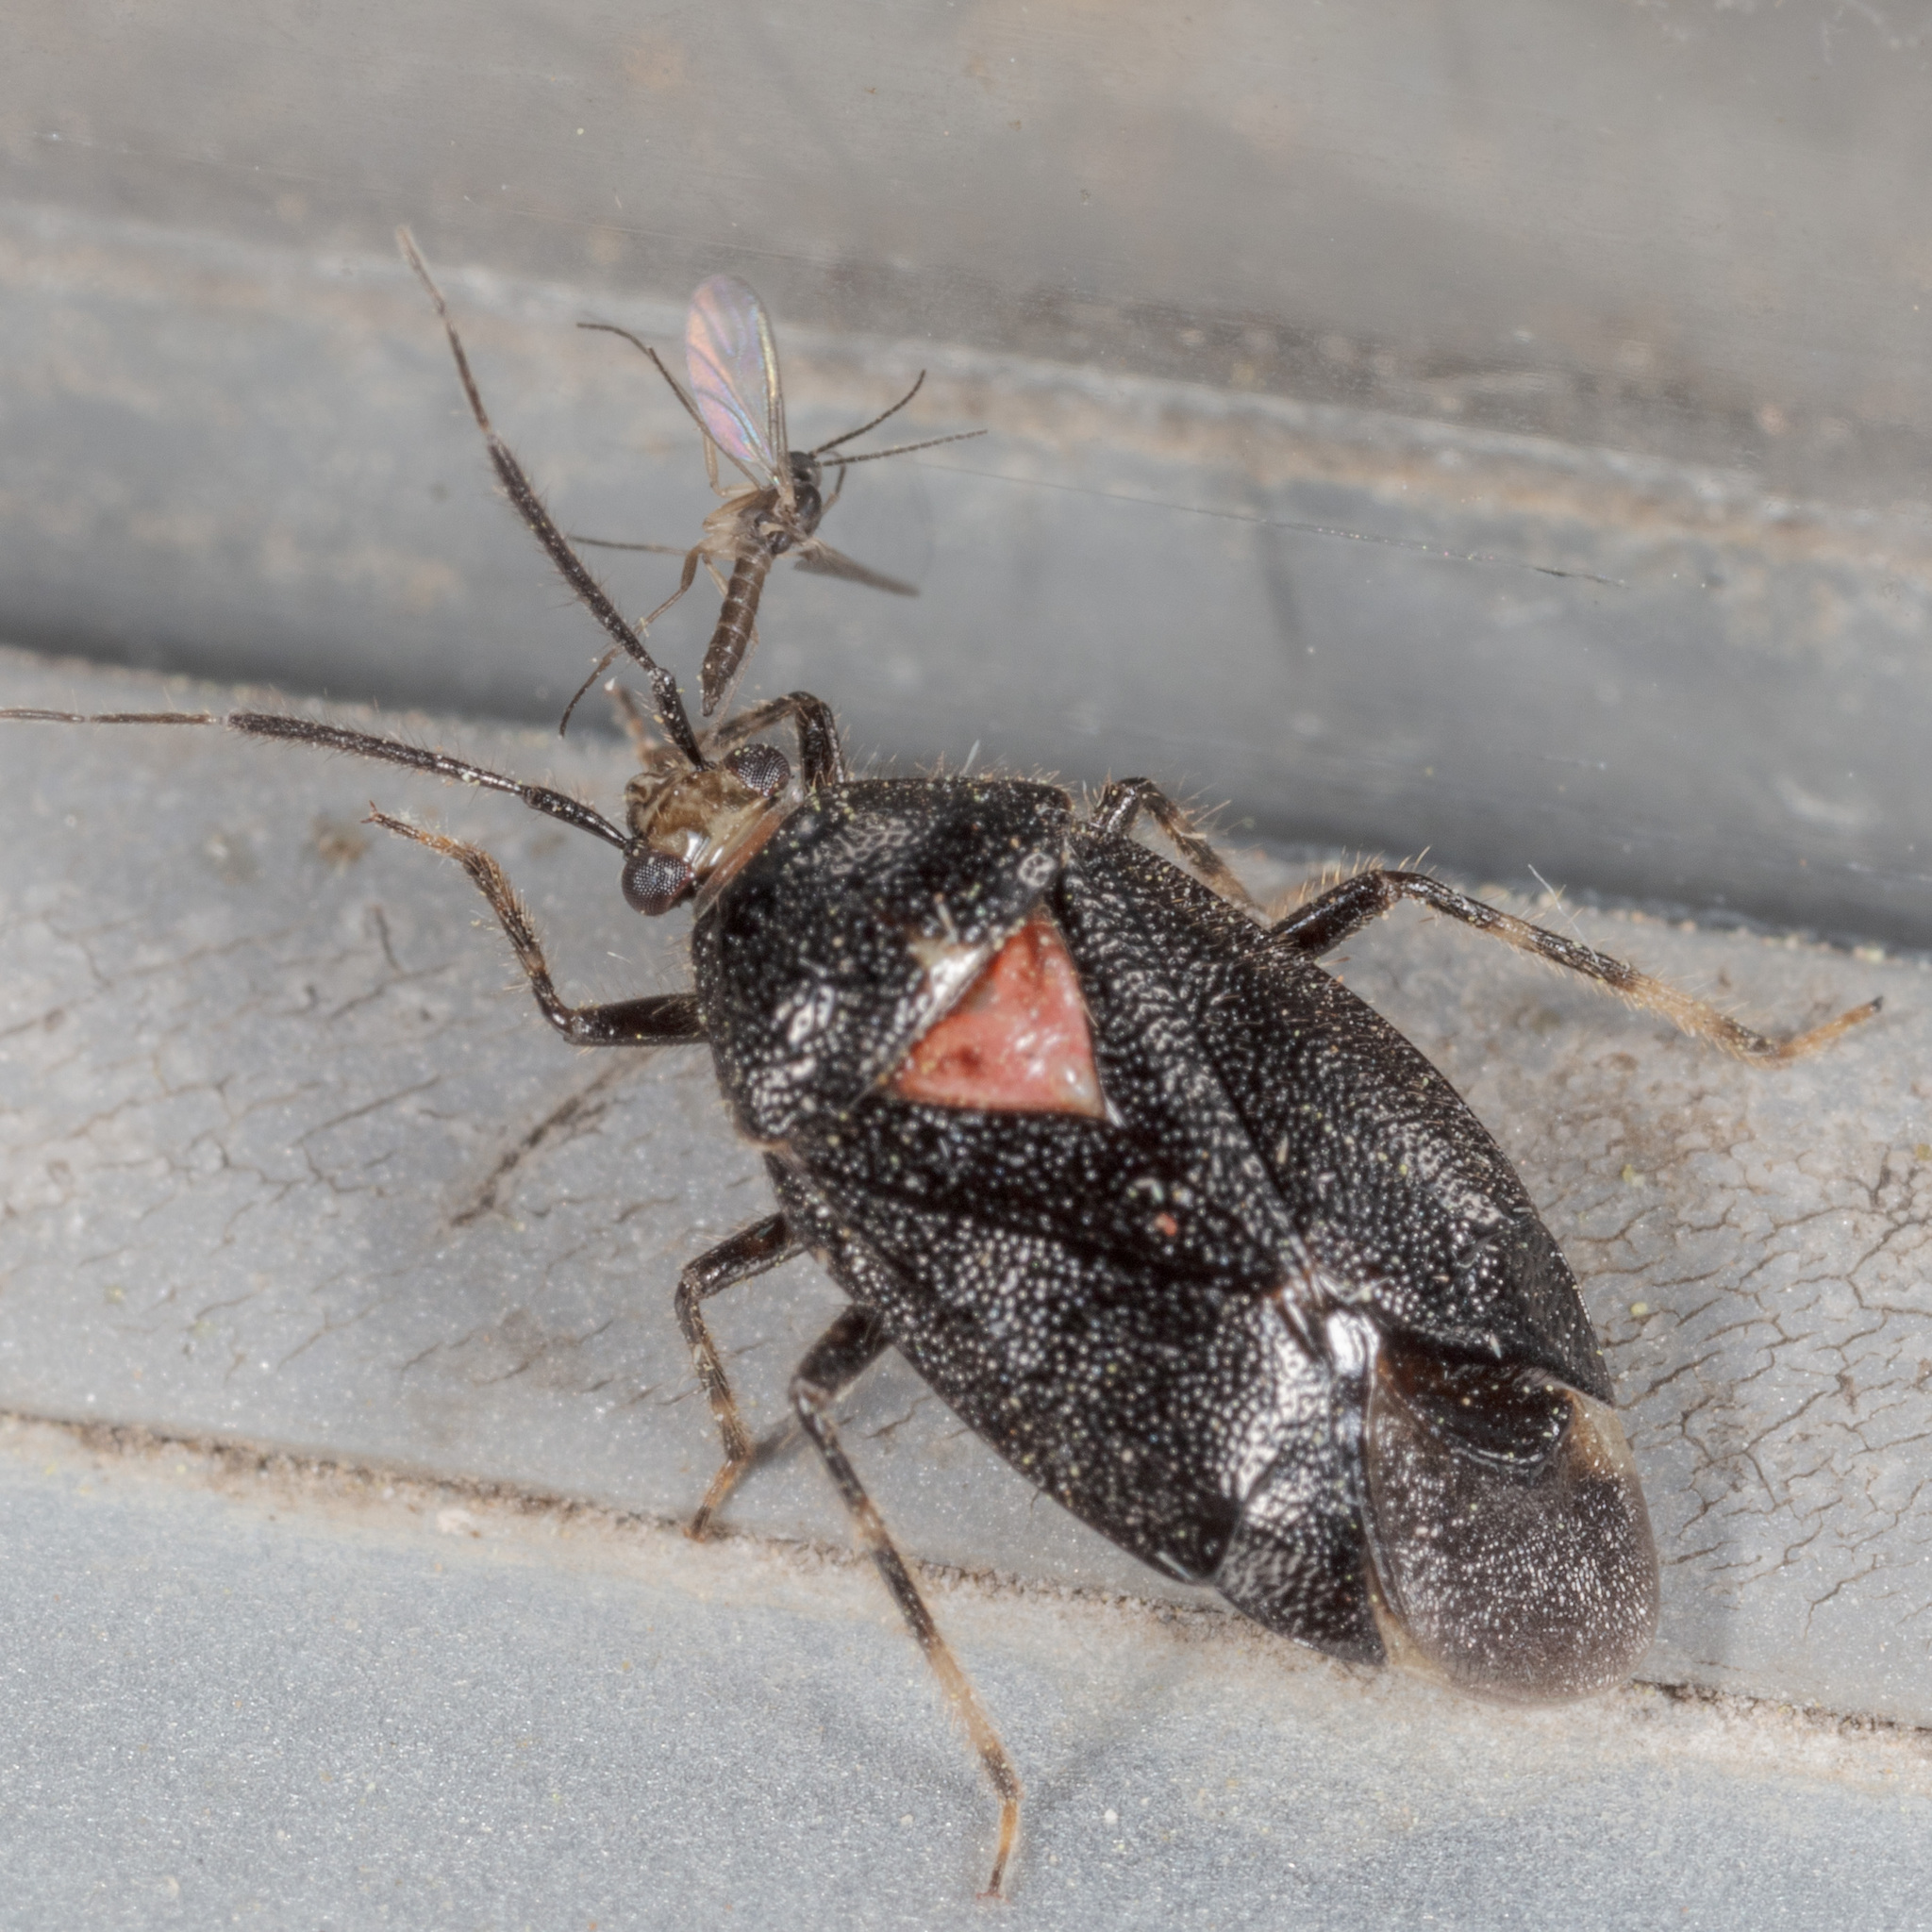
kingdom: Animalia
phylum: Arthropoda
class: Insecta
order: Hemiptera
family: Miridae
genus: Deraeocoris
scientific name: Deraeocoris sayi
